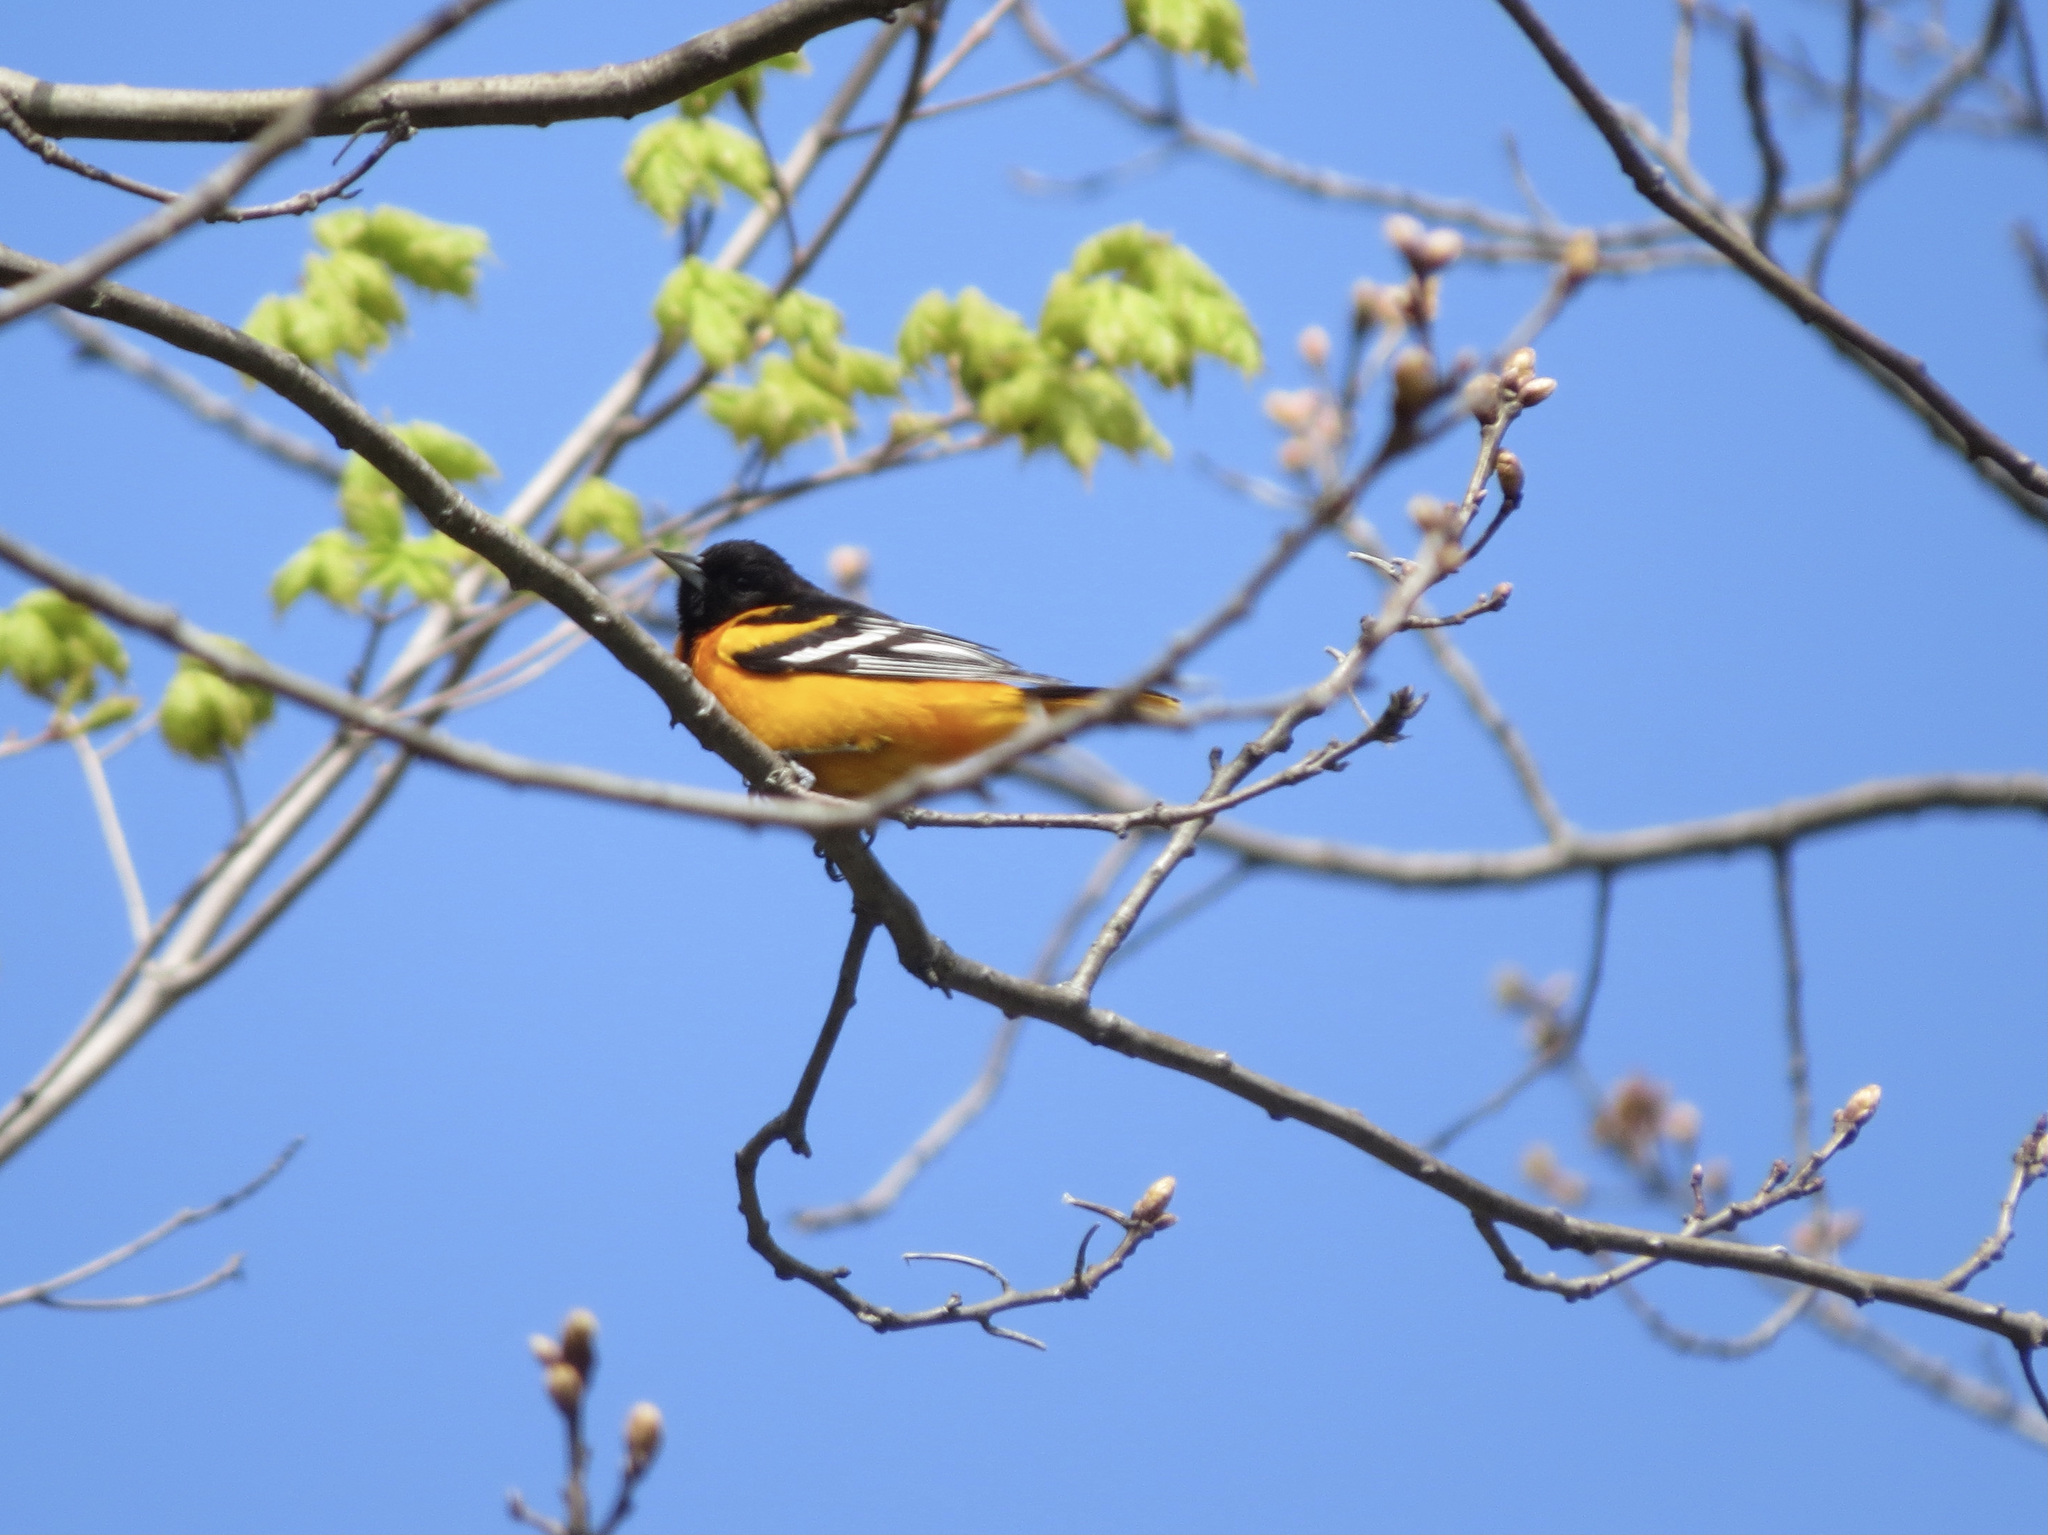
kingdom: Animalia
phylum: Chordata
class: Aves
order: Passeriformes
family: Icteridae
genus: Icterus
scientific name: Icterus galbula
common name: Baltimore oriole
